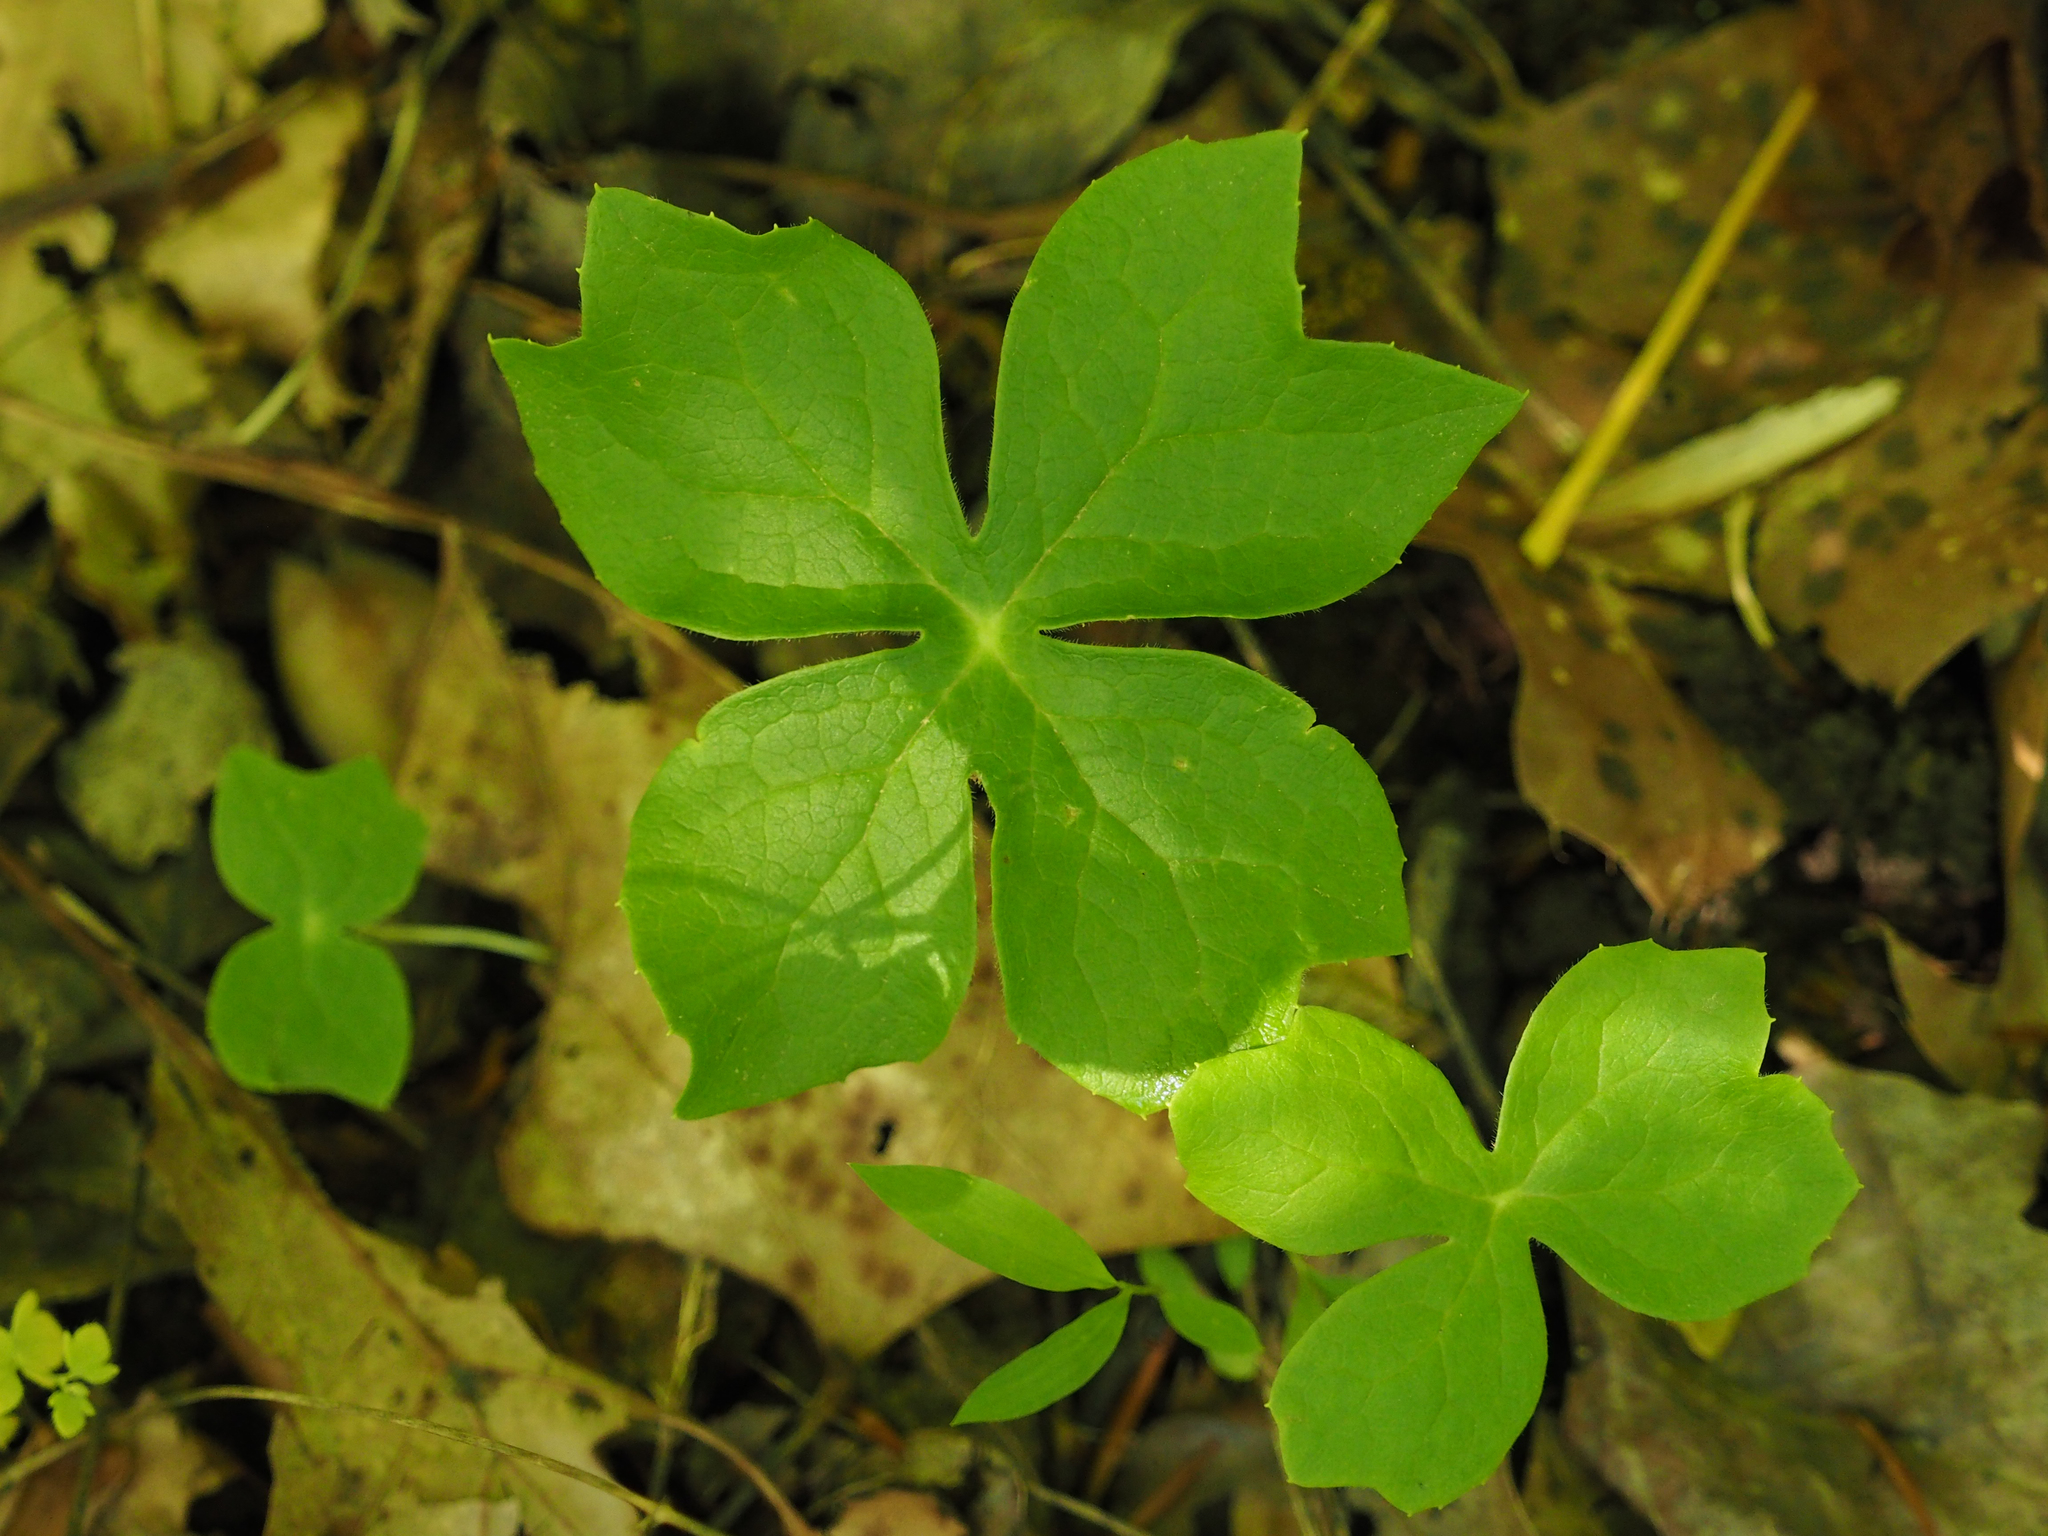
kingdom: Plantae
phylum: Tracheophyta
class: Magnoliopsida
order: Ranunculales
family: Berberidaceae
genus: Podophyllum
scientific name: Podophyllum peltatum
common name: Wild mandrake
